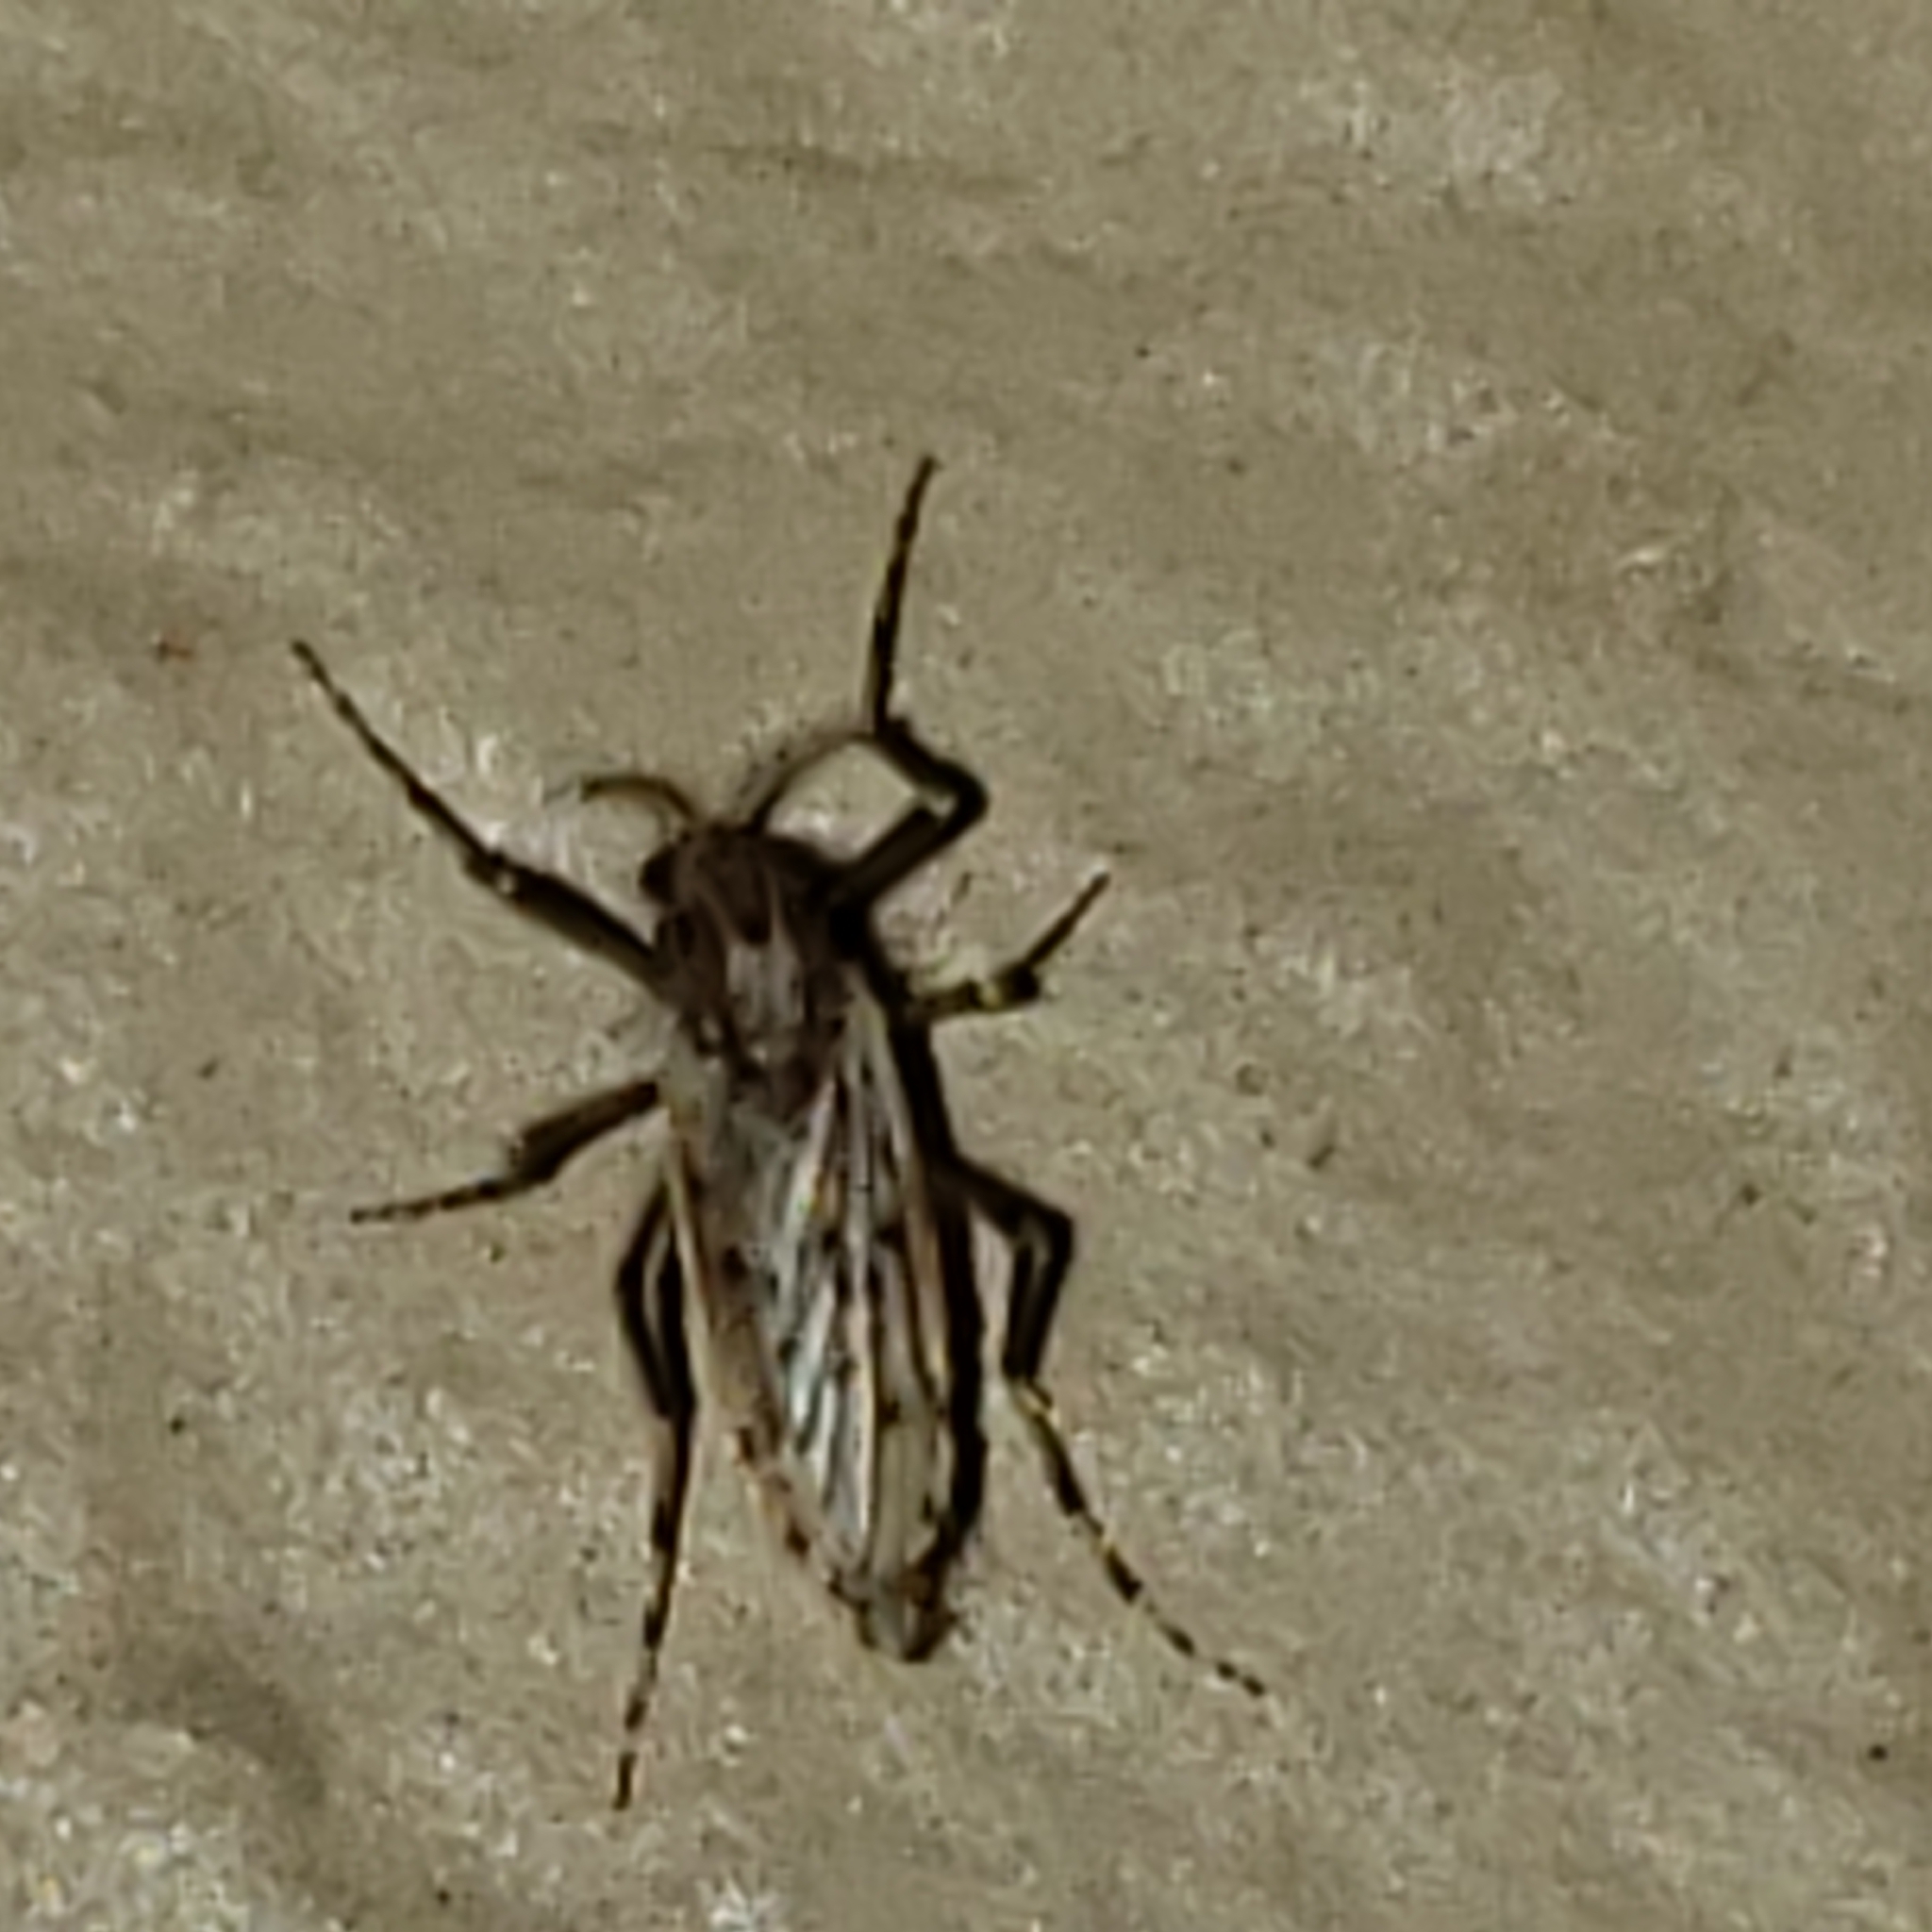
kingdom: Animalia
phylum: Arthropoda
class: Insecta
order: Diptera
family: Chaoboridae
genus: Chaoborus
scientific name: Chaoborus punctipennis
